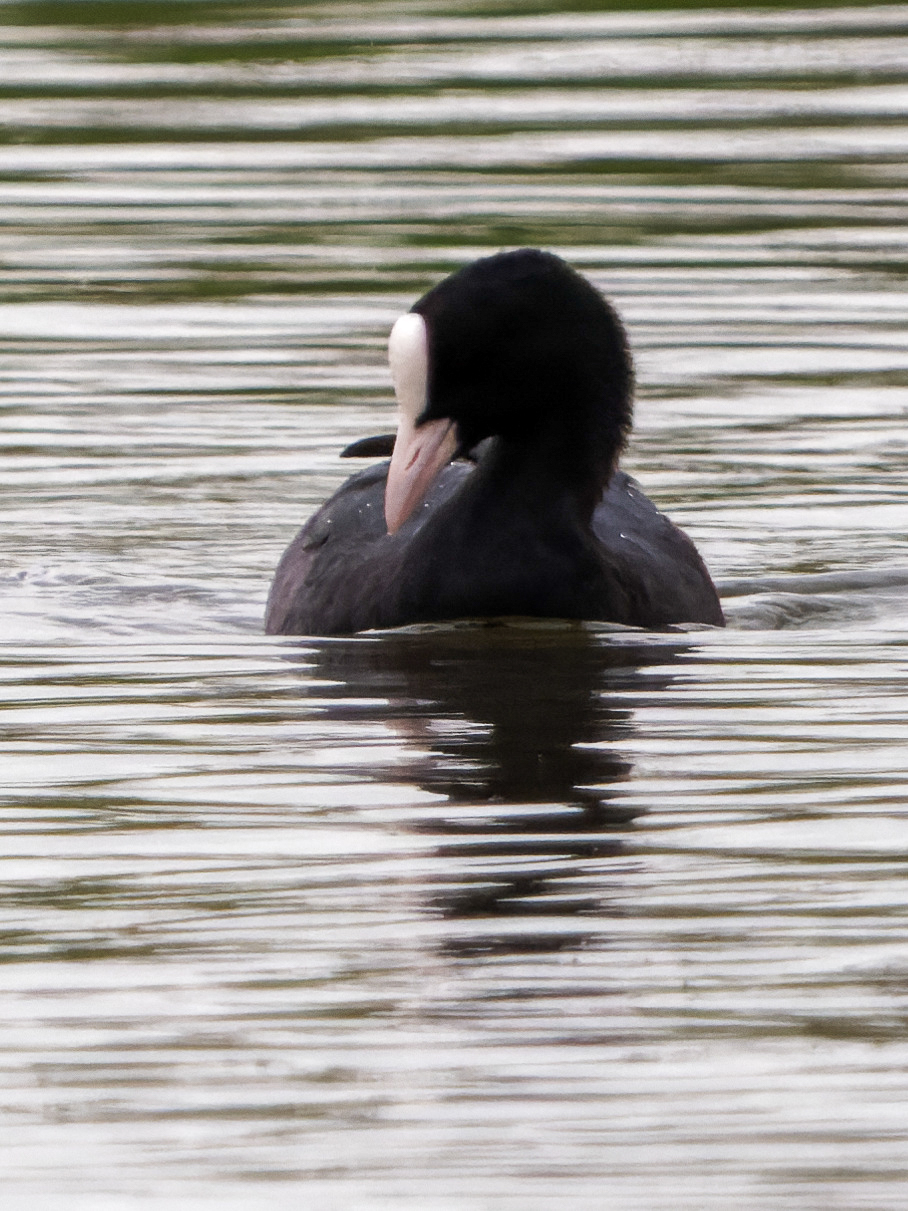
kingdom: Animalia
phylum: Chordata
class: Aves
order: Gruiformes
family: Rallidae
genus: Fulica
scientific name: Fulica atra
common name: Eurasian coot
